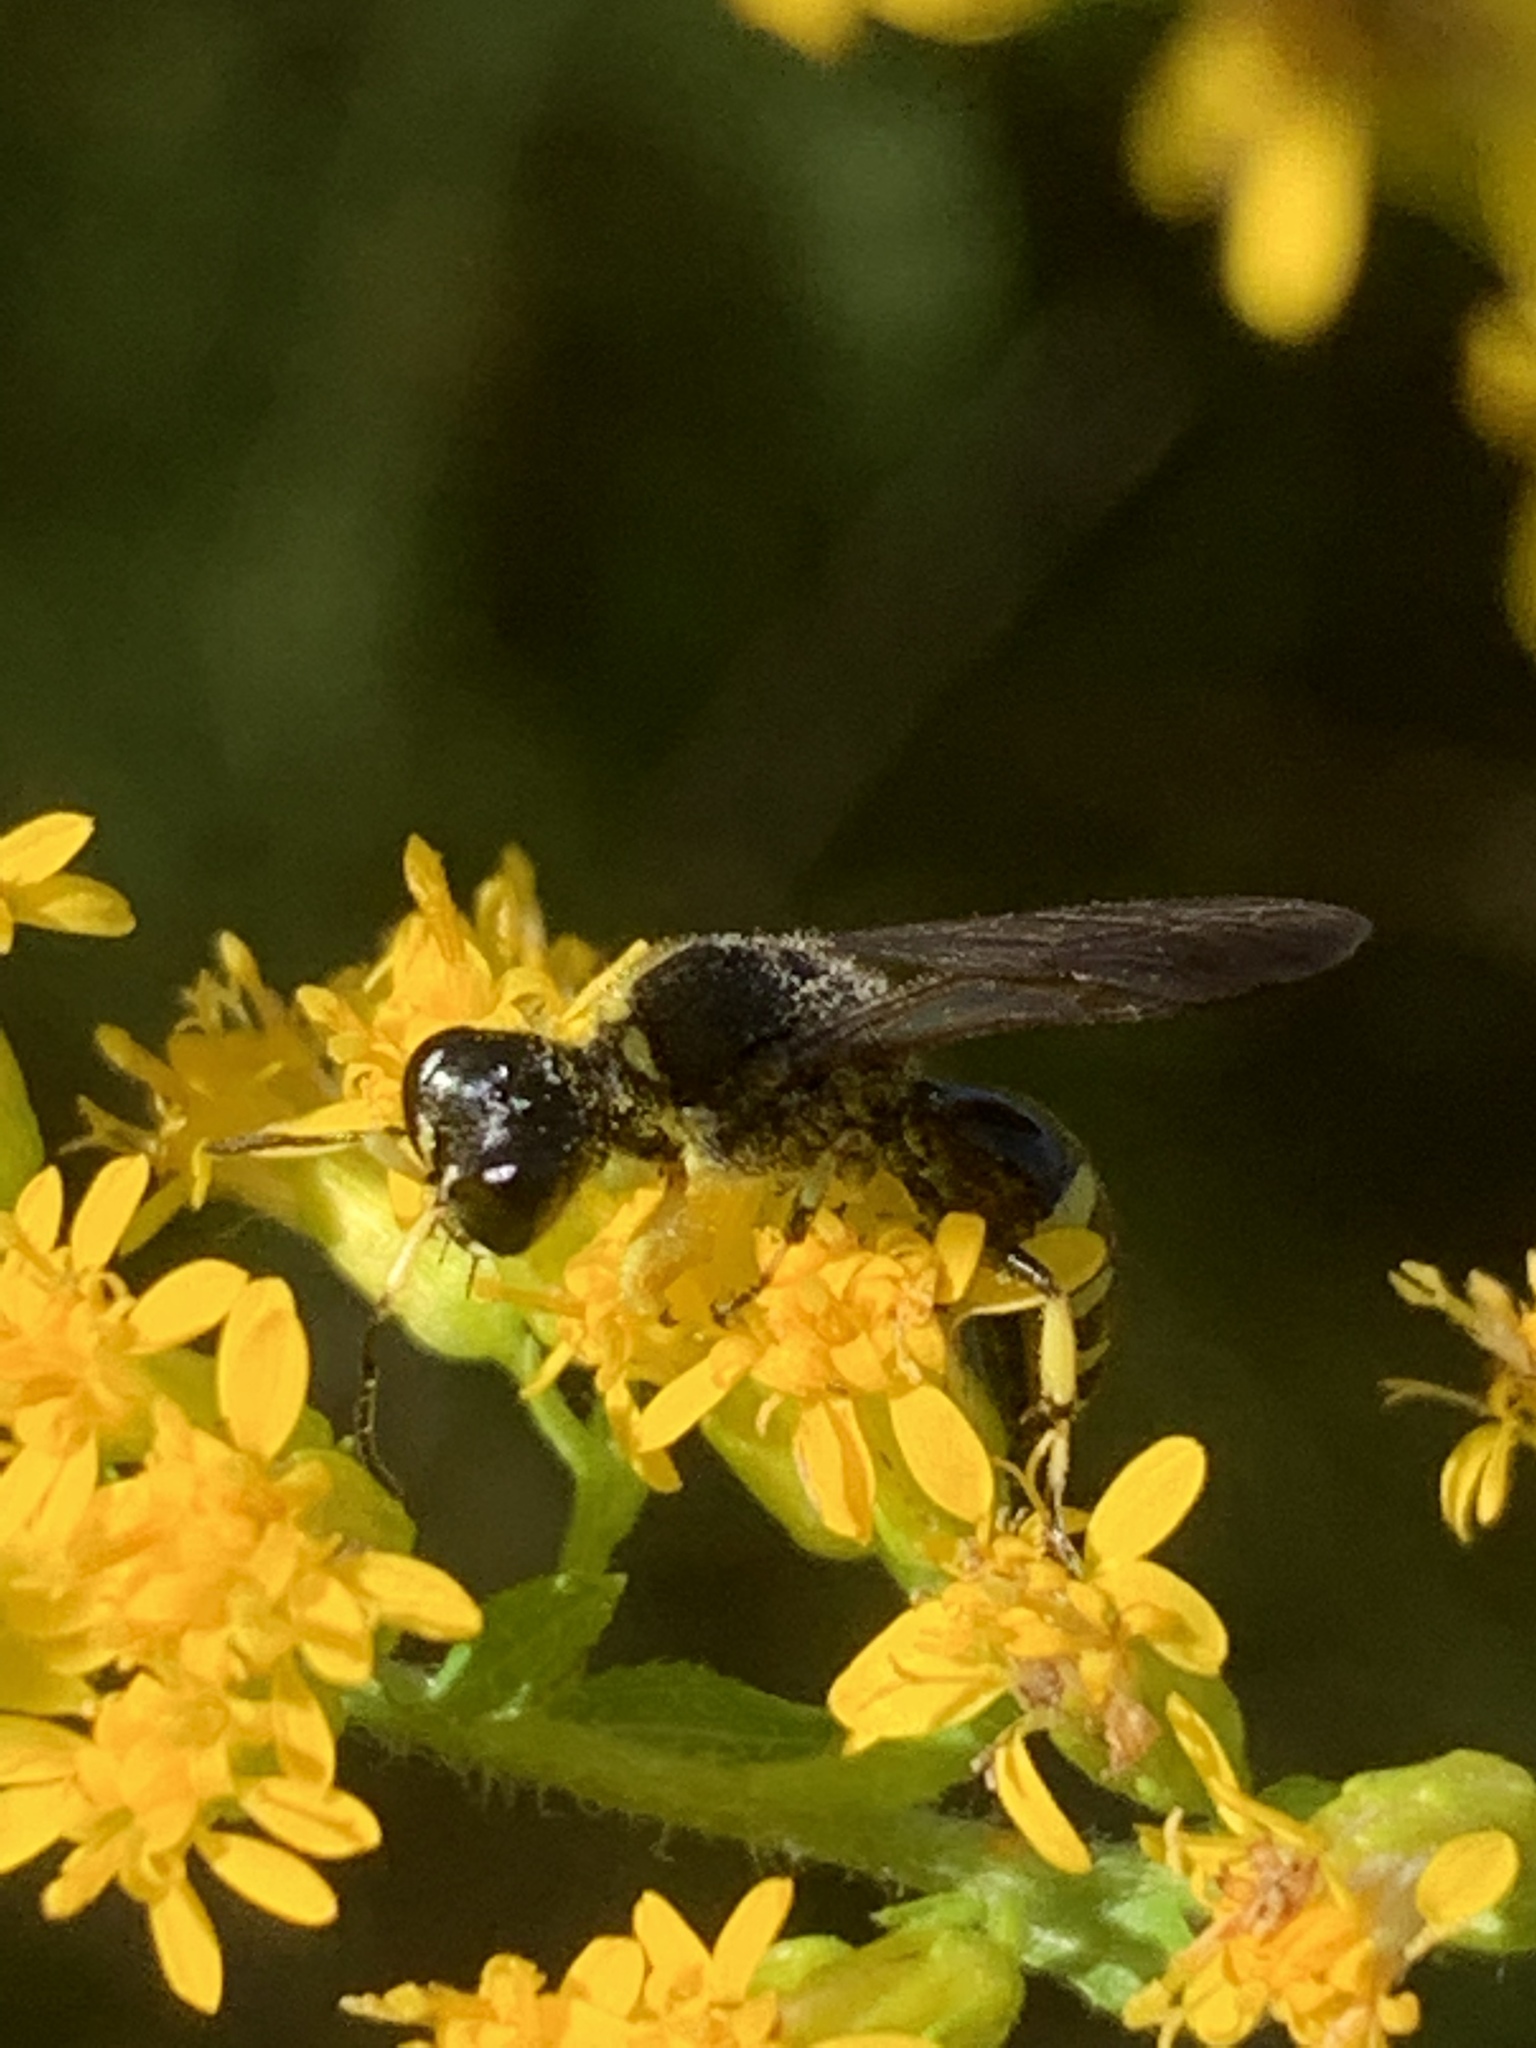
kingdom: Animalia
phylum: Arthropoda
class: Insecta
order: Hymenoptera
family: Crabronidae
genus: Ectemnius
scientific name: Ectemnius maculosus
